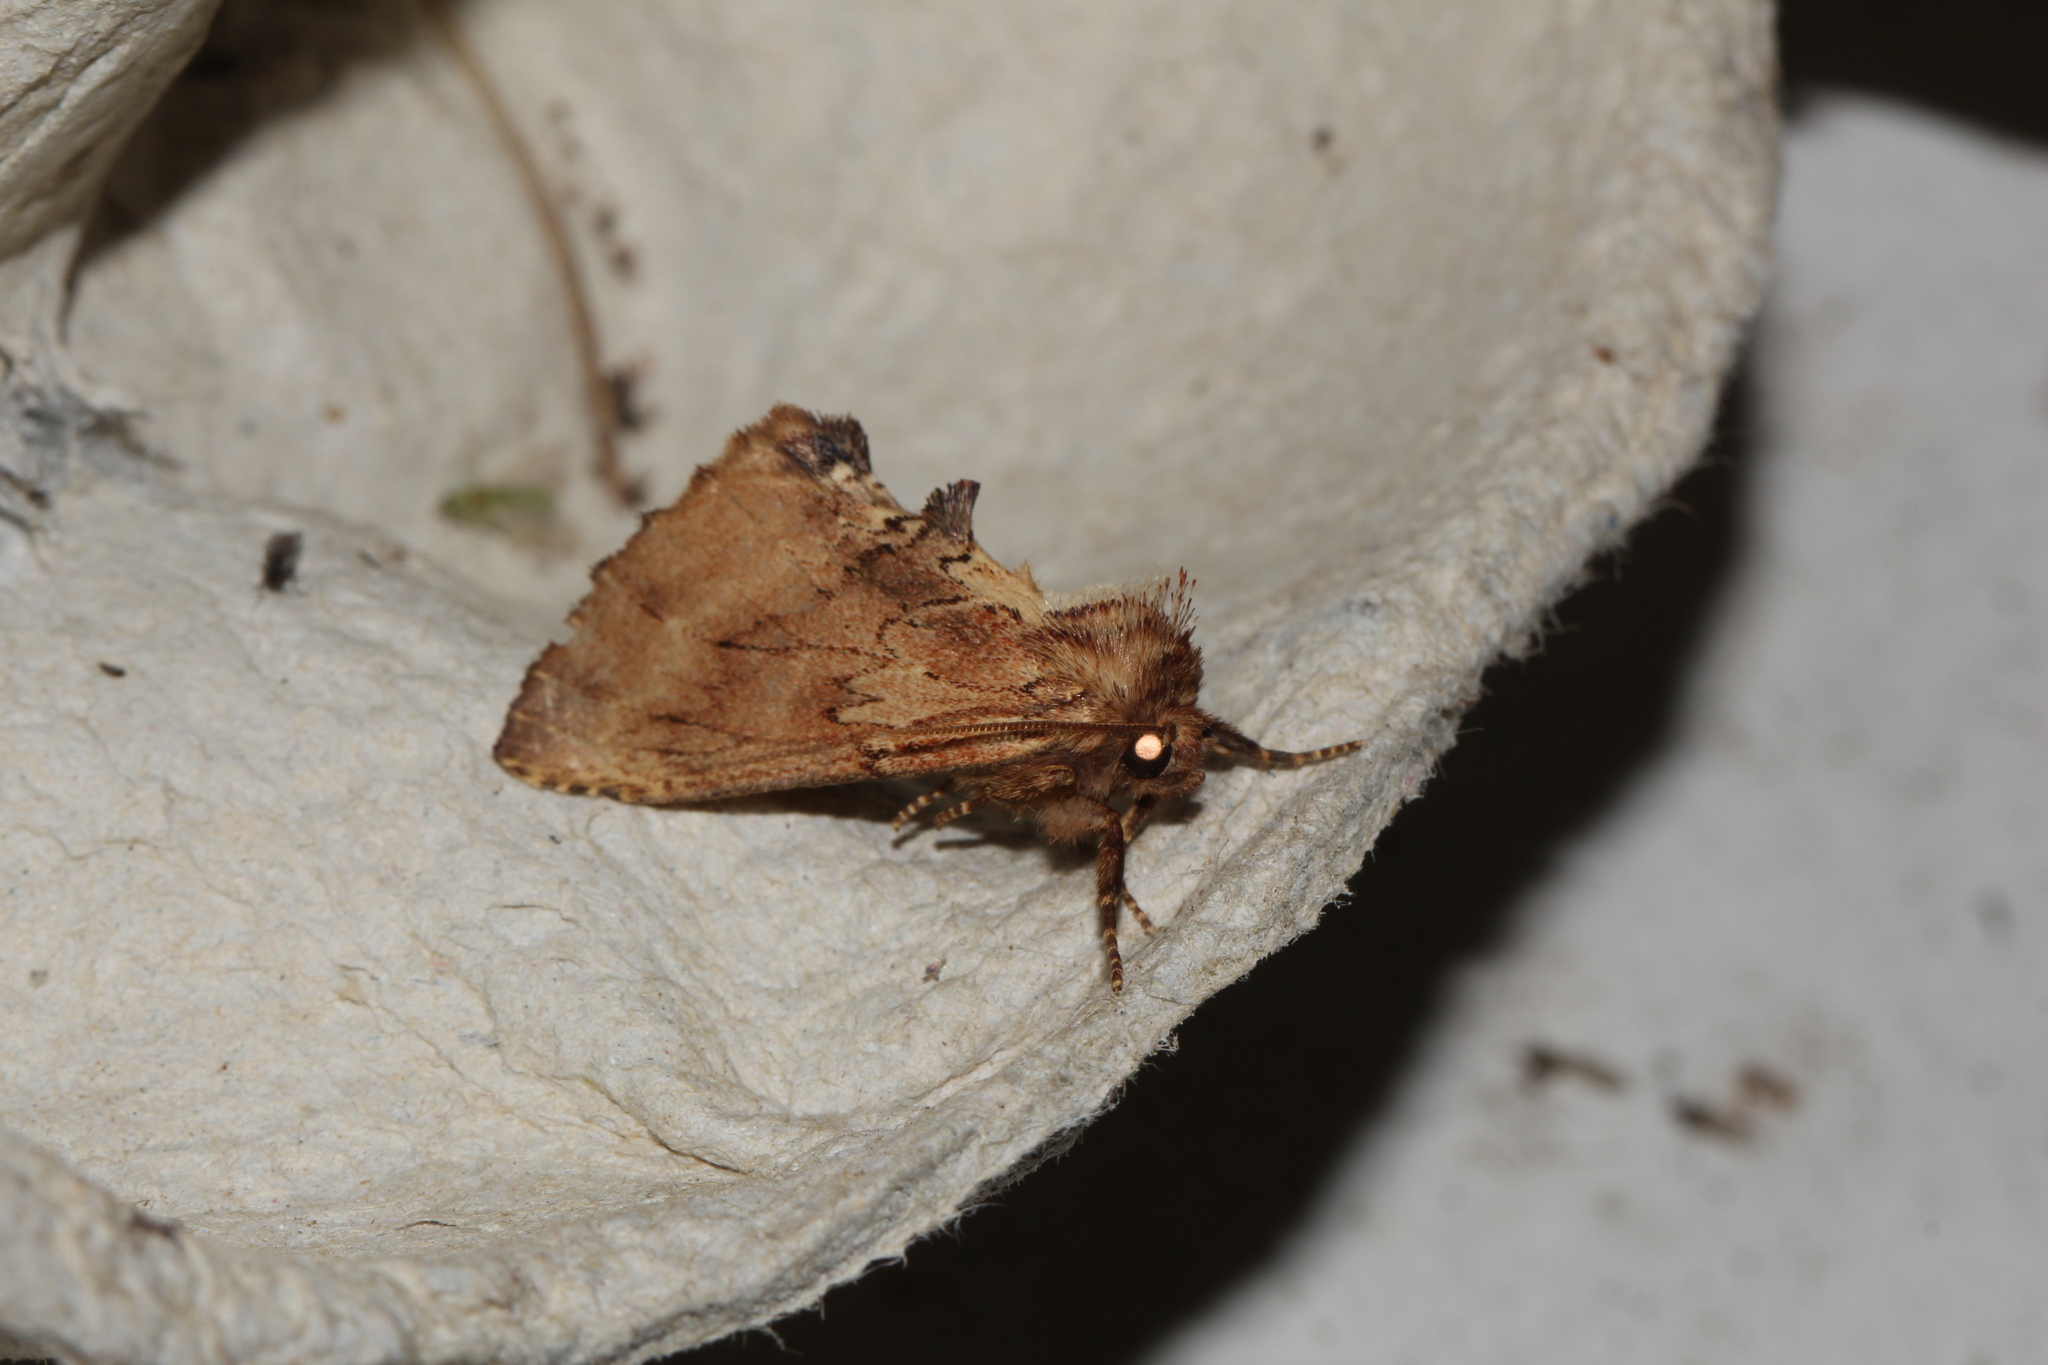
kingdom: Animalia
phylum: Arthropoda
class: Insecta
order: Lepidoptera
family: Notodontidae
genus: Ptilodon
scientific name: Ptilodon capucina
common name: Coxcomb prominent
